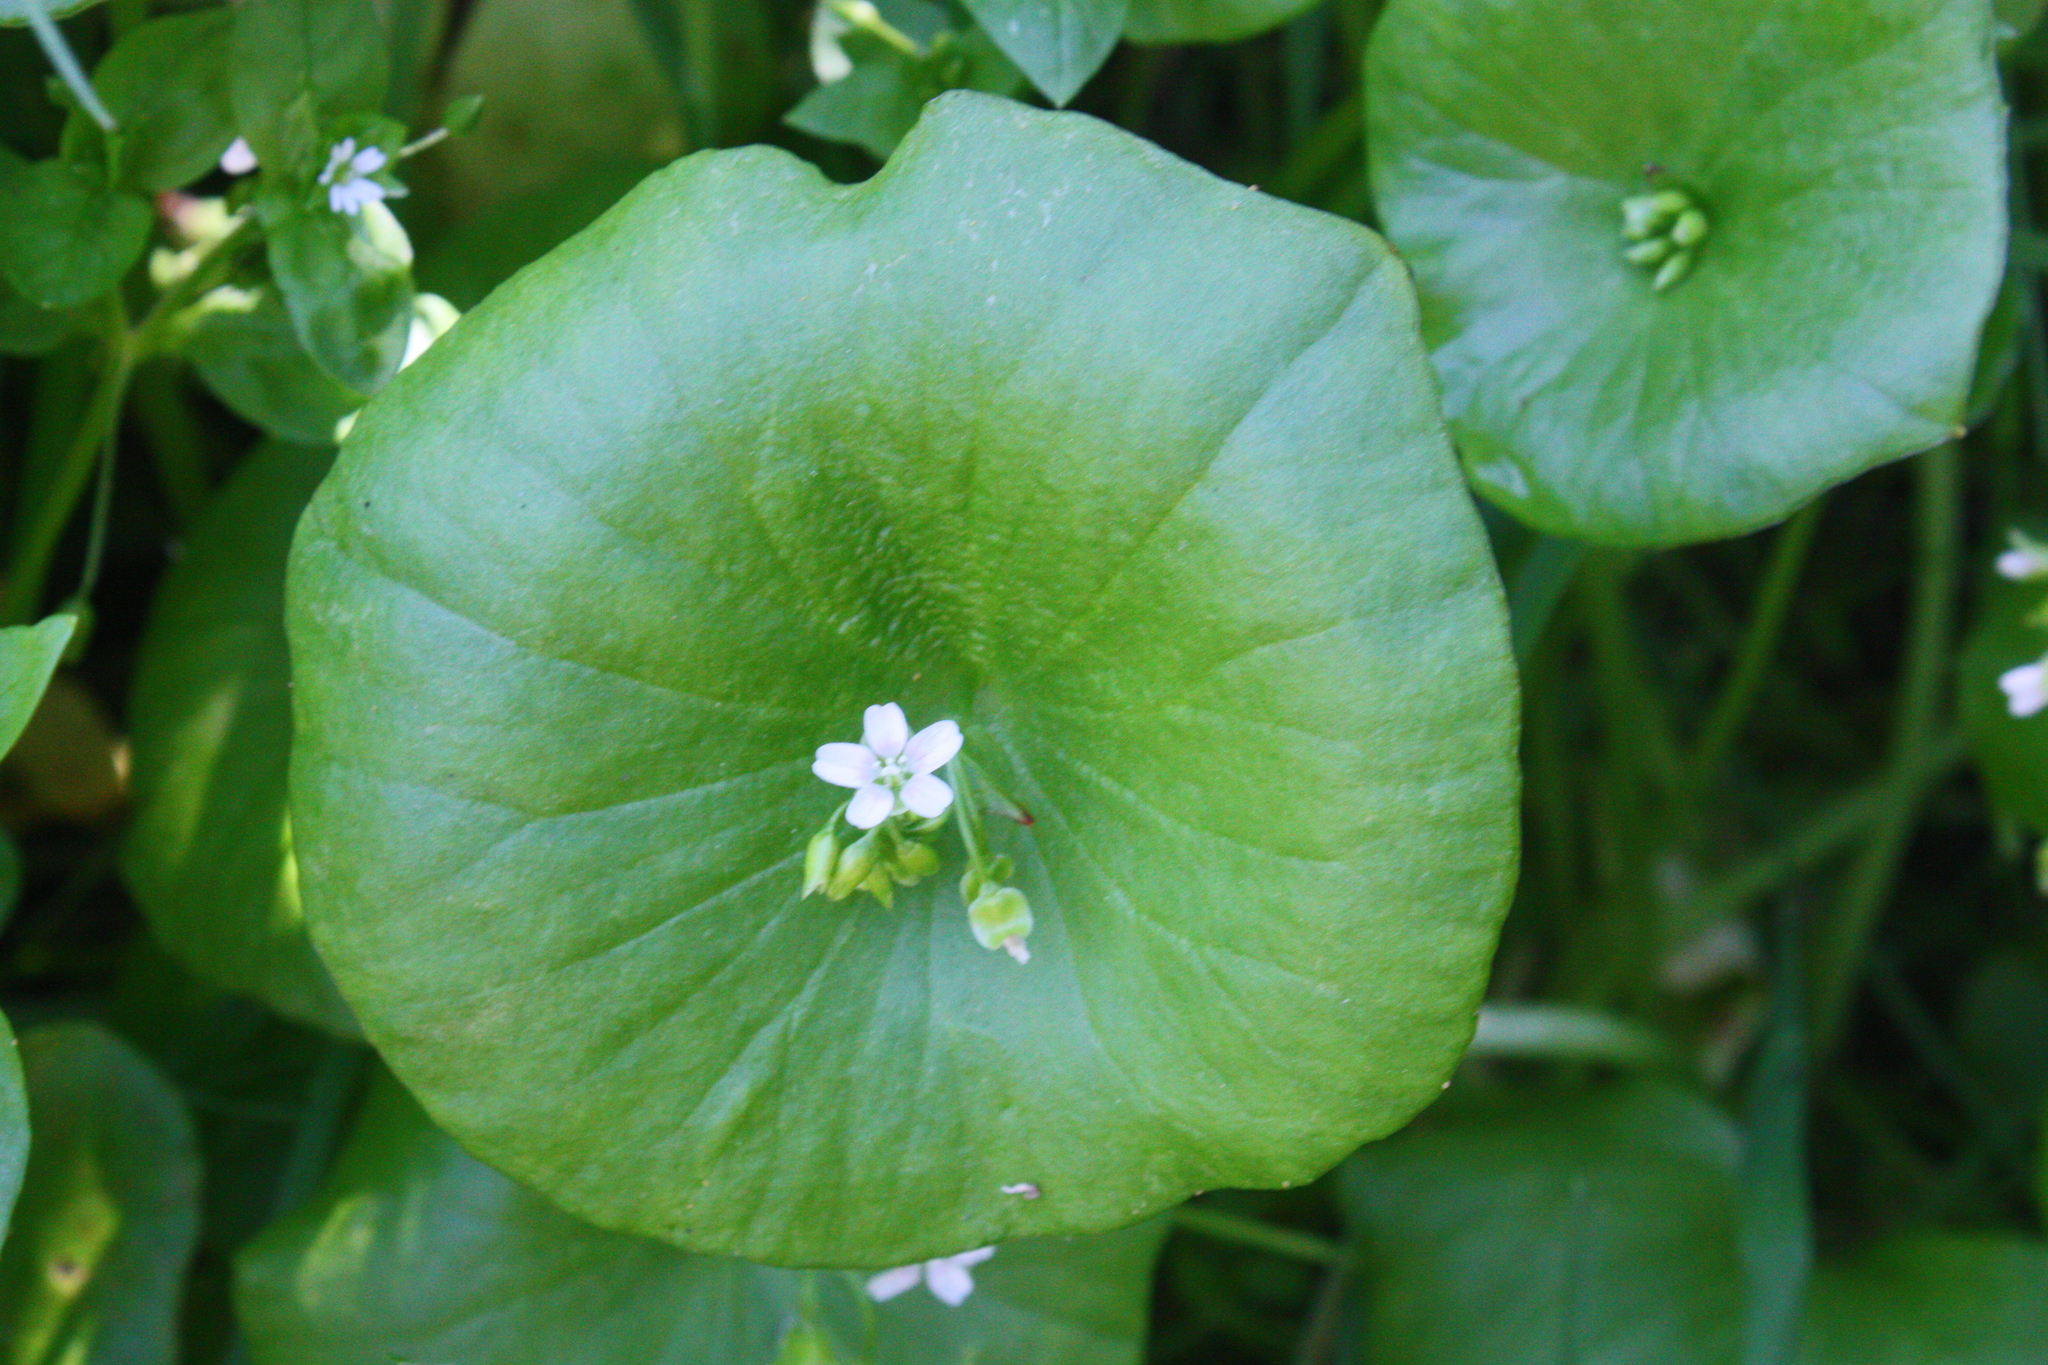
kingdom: Plantae
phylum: Tracheophyta
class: Magnoliopsida
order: Caryophyllales
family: Montiaceae
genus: Claytonia
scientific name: Claytonia perfoliata
